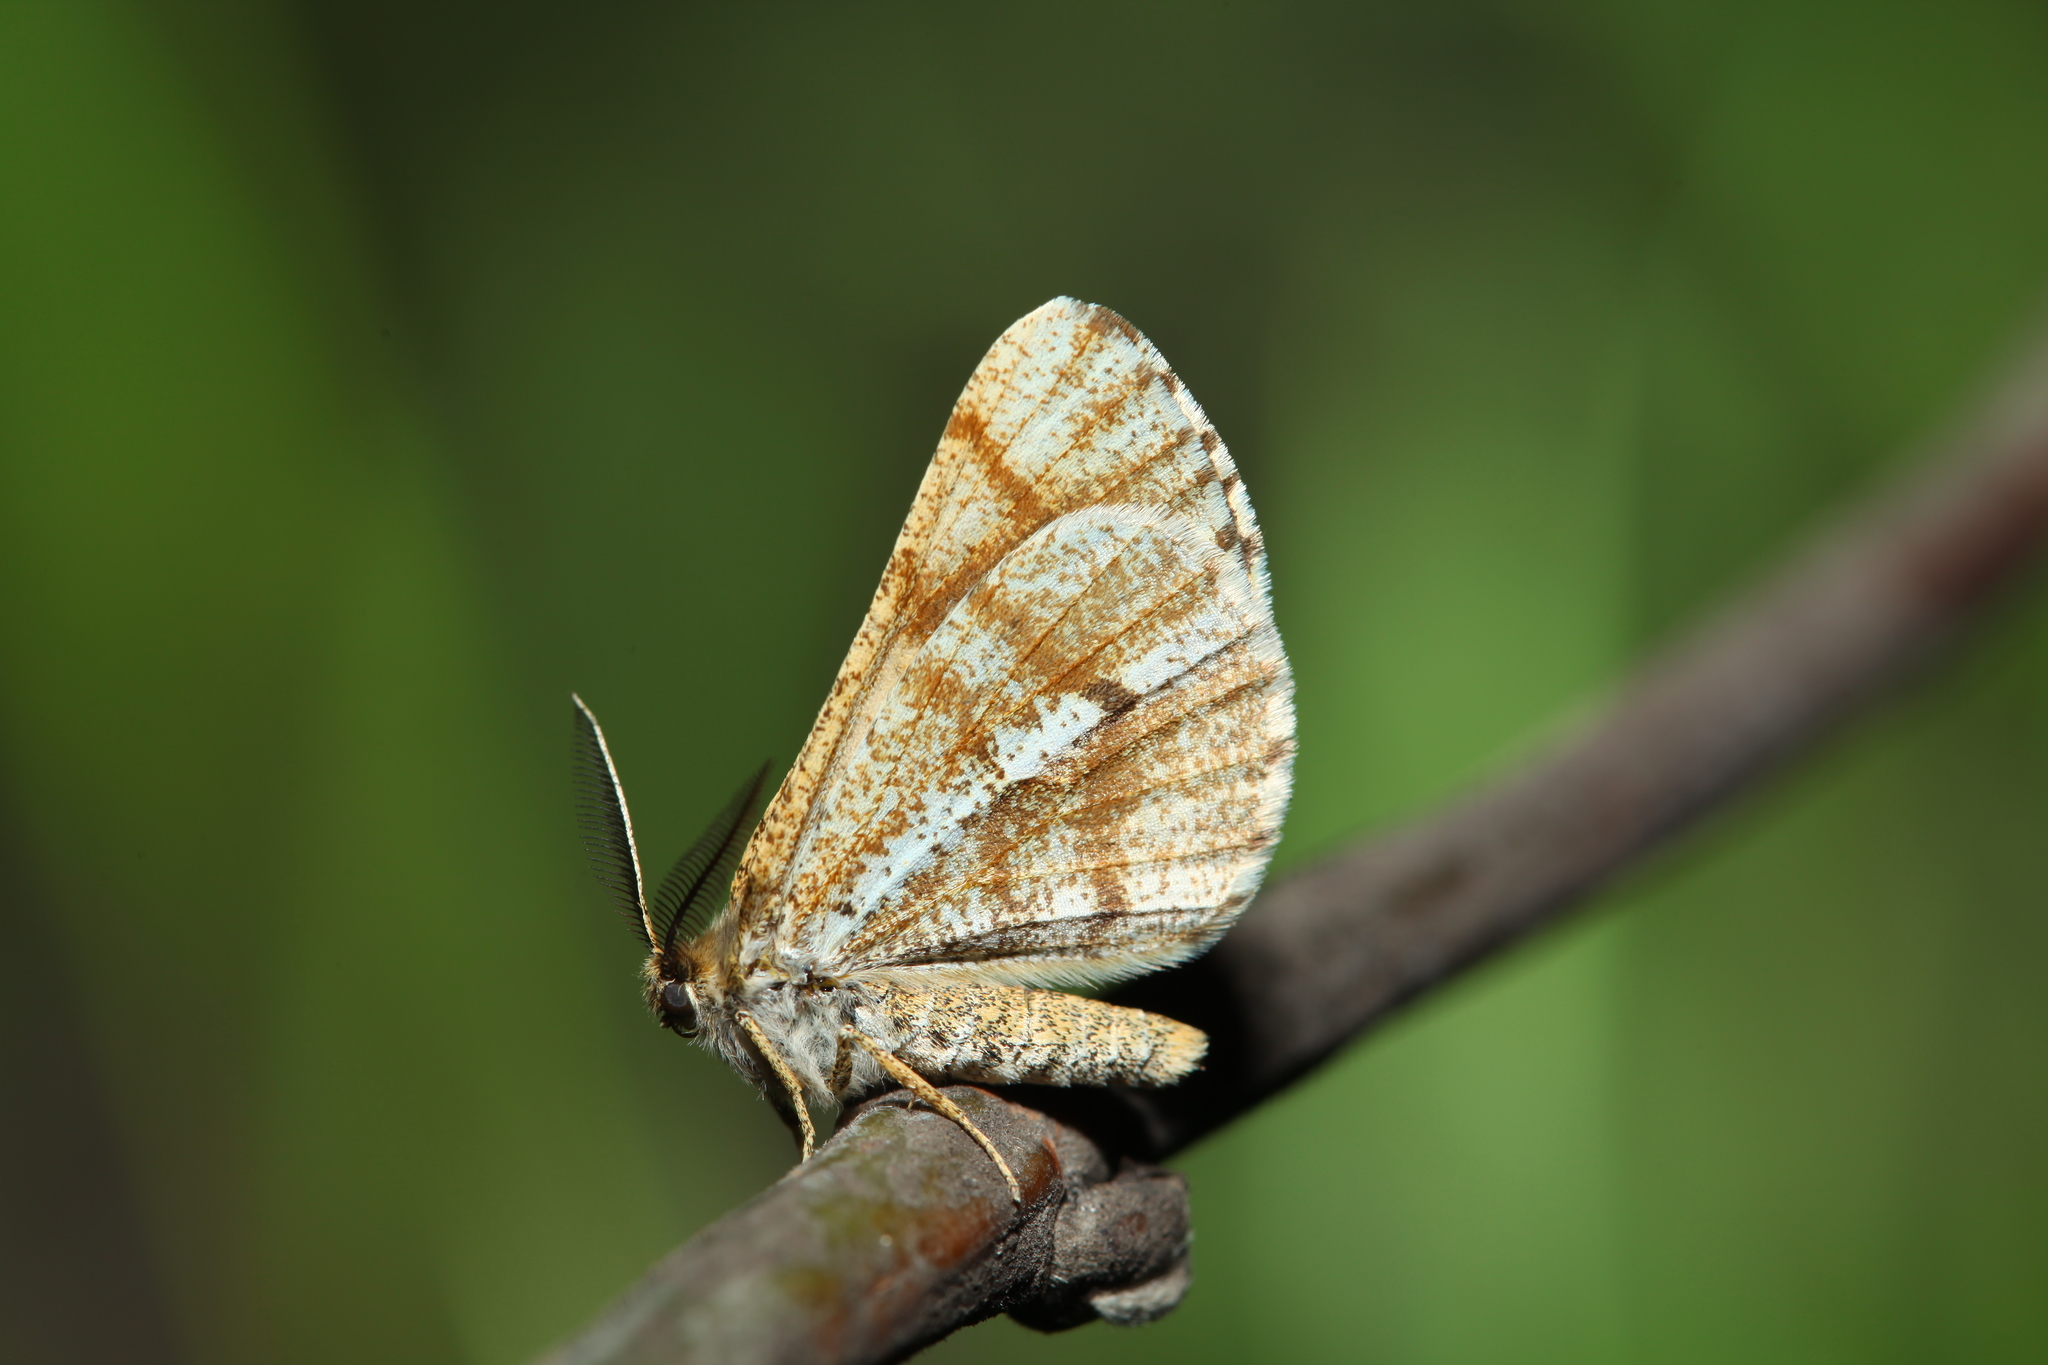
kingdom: Animalia
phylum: Arthropoda
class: Insecta
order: Lepidoptera
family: Geometridae
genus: Bupalus
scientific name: Bupalus piniaria
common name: Bordered white
